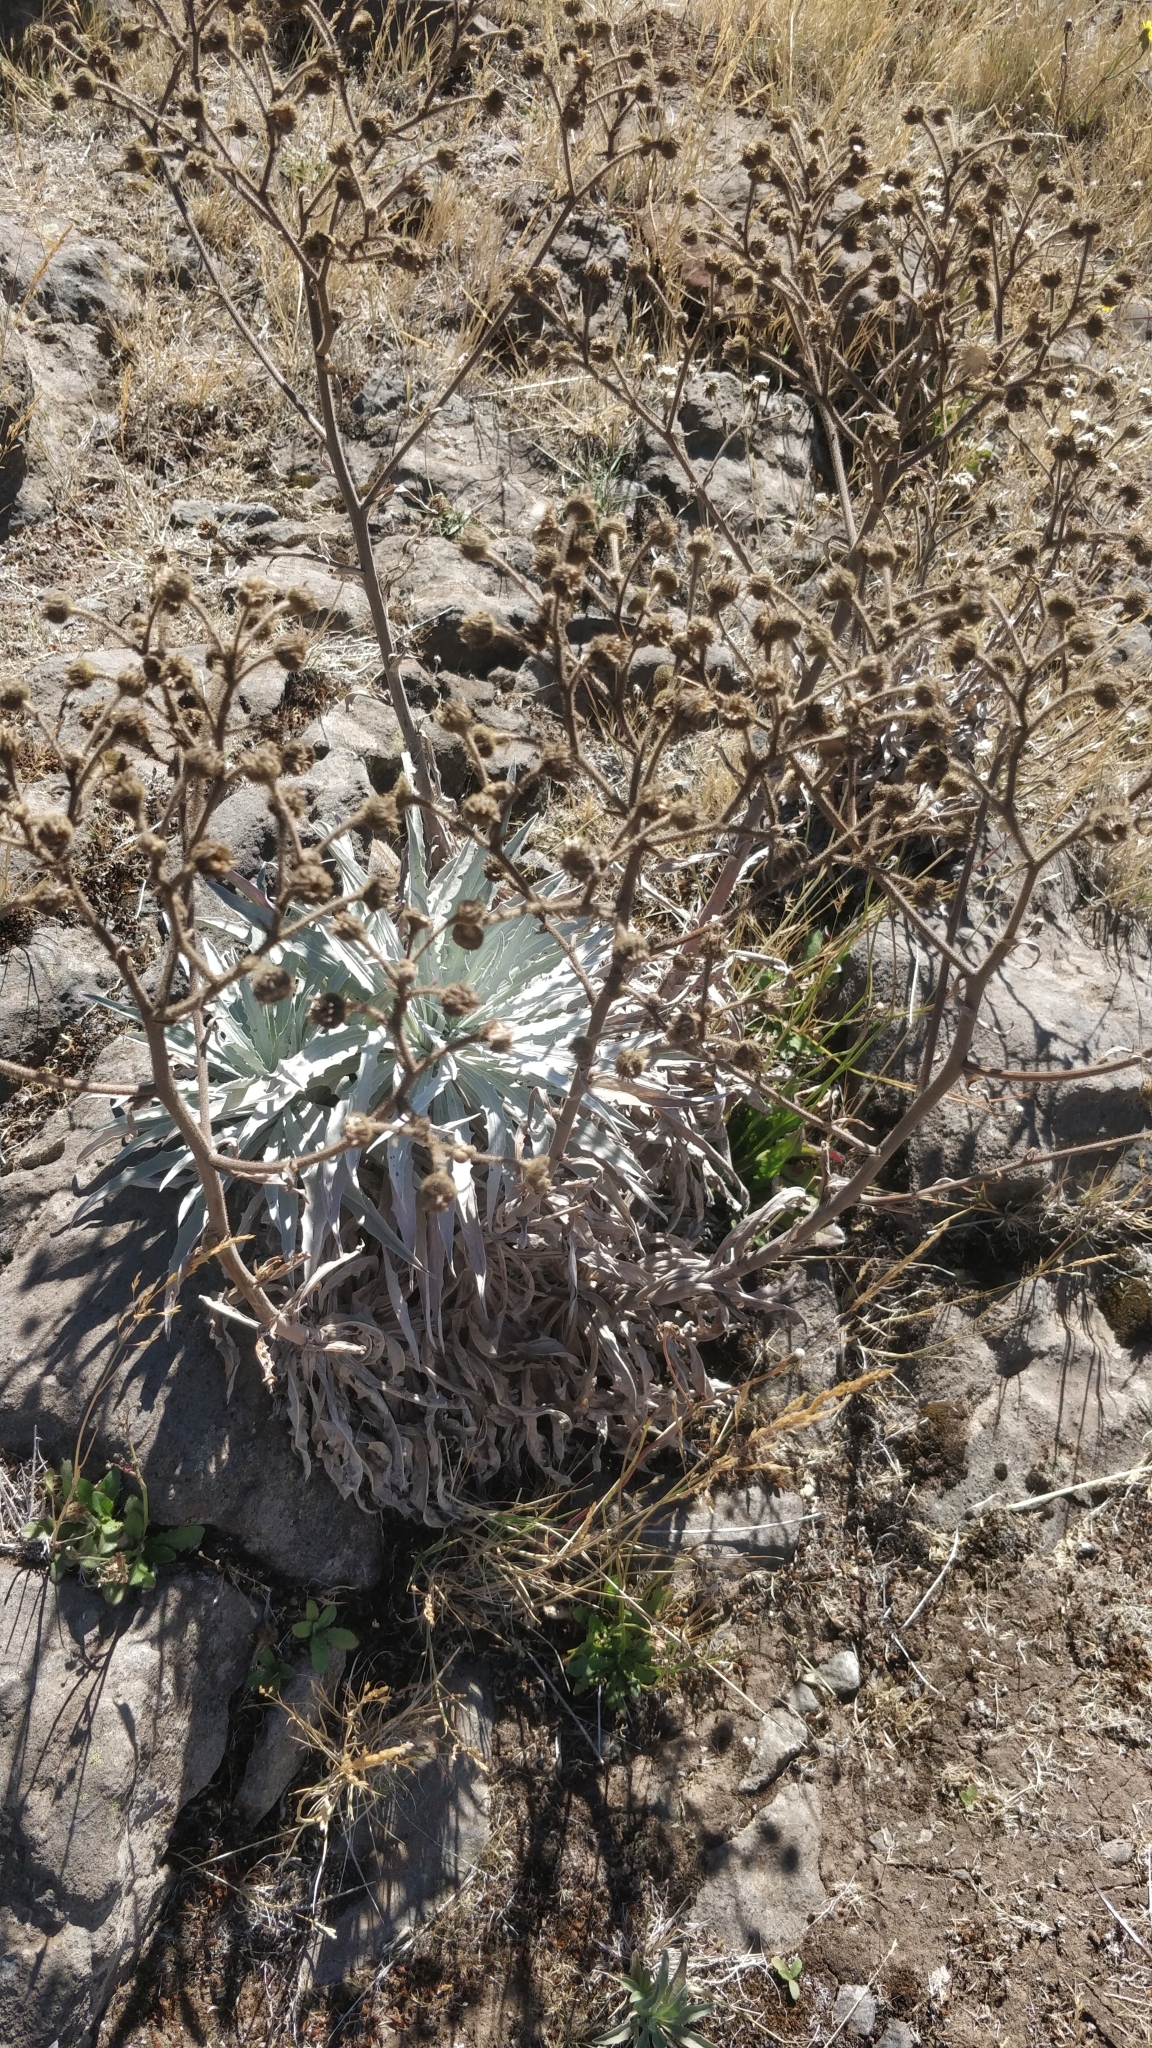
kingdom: Plantae
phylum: Tracheophyta
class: Magnoliopsida
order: Asterales
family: Asteraceae
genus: Andryala
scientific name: Andryala glandulosa
